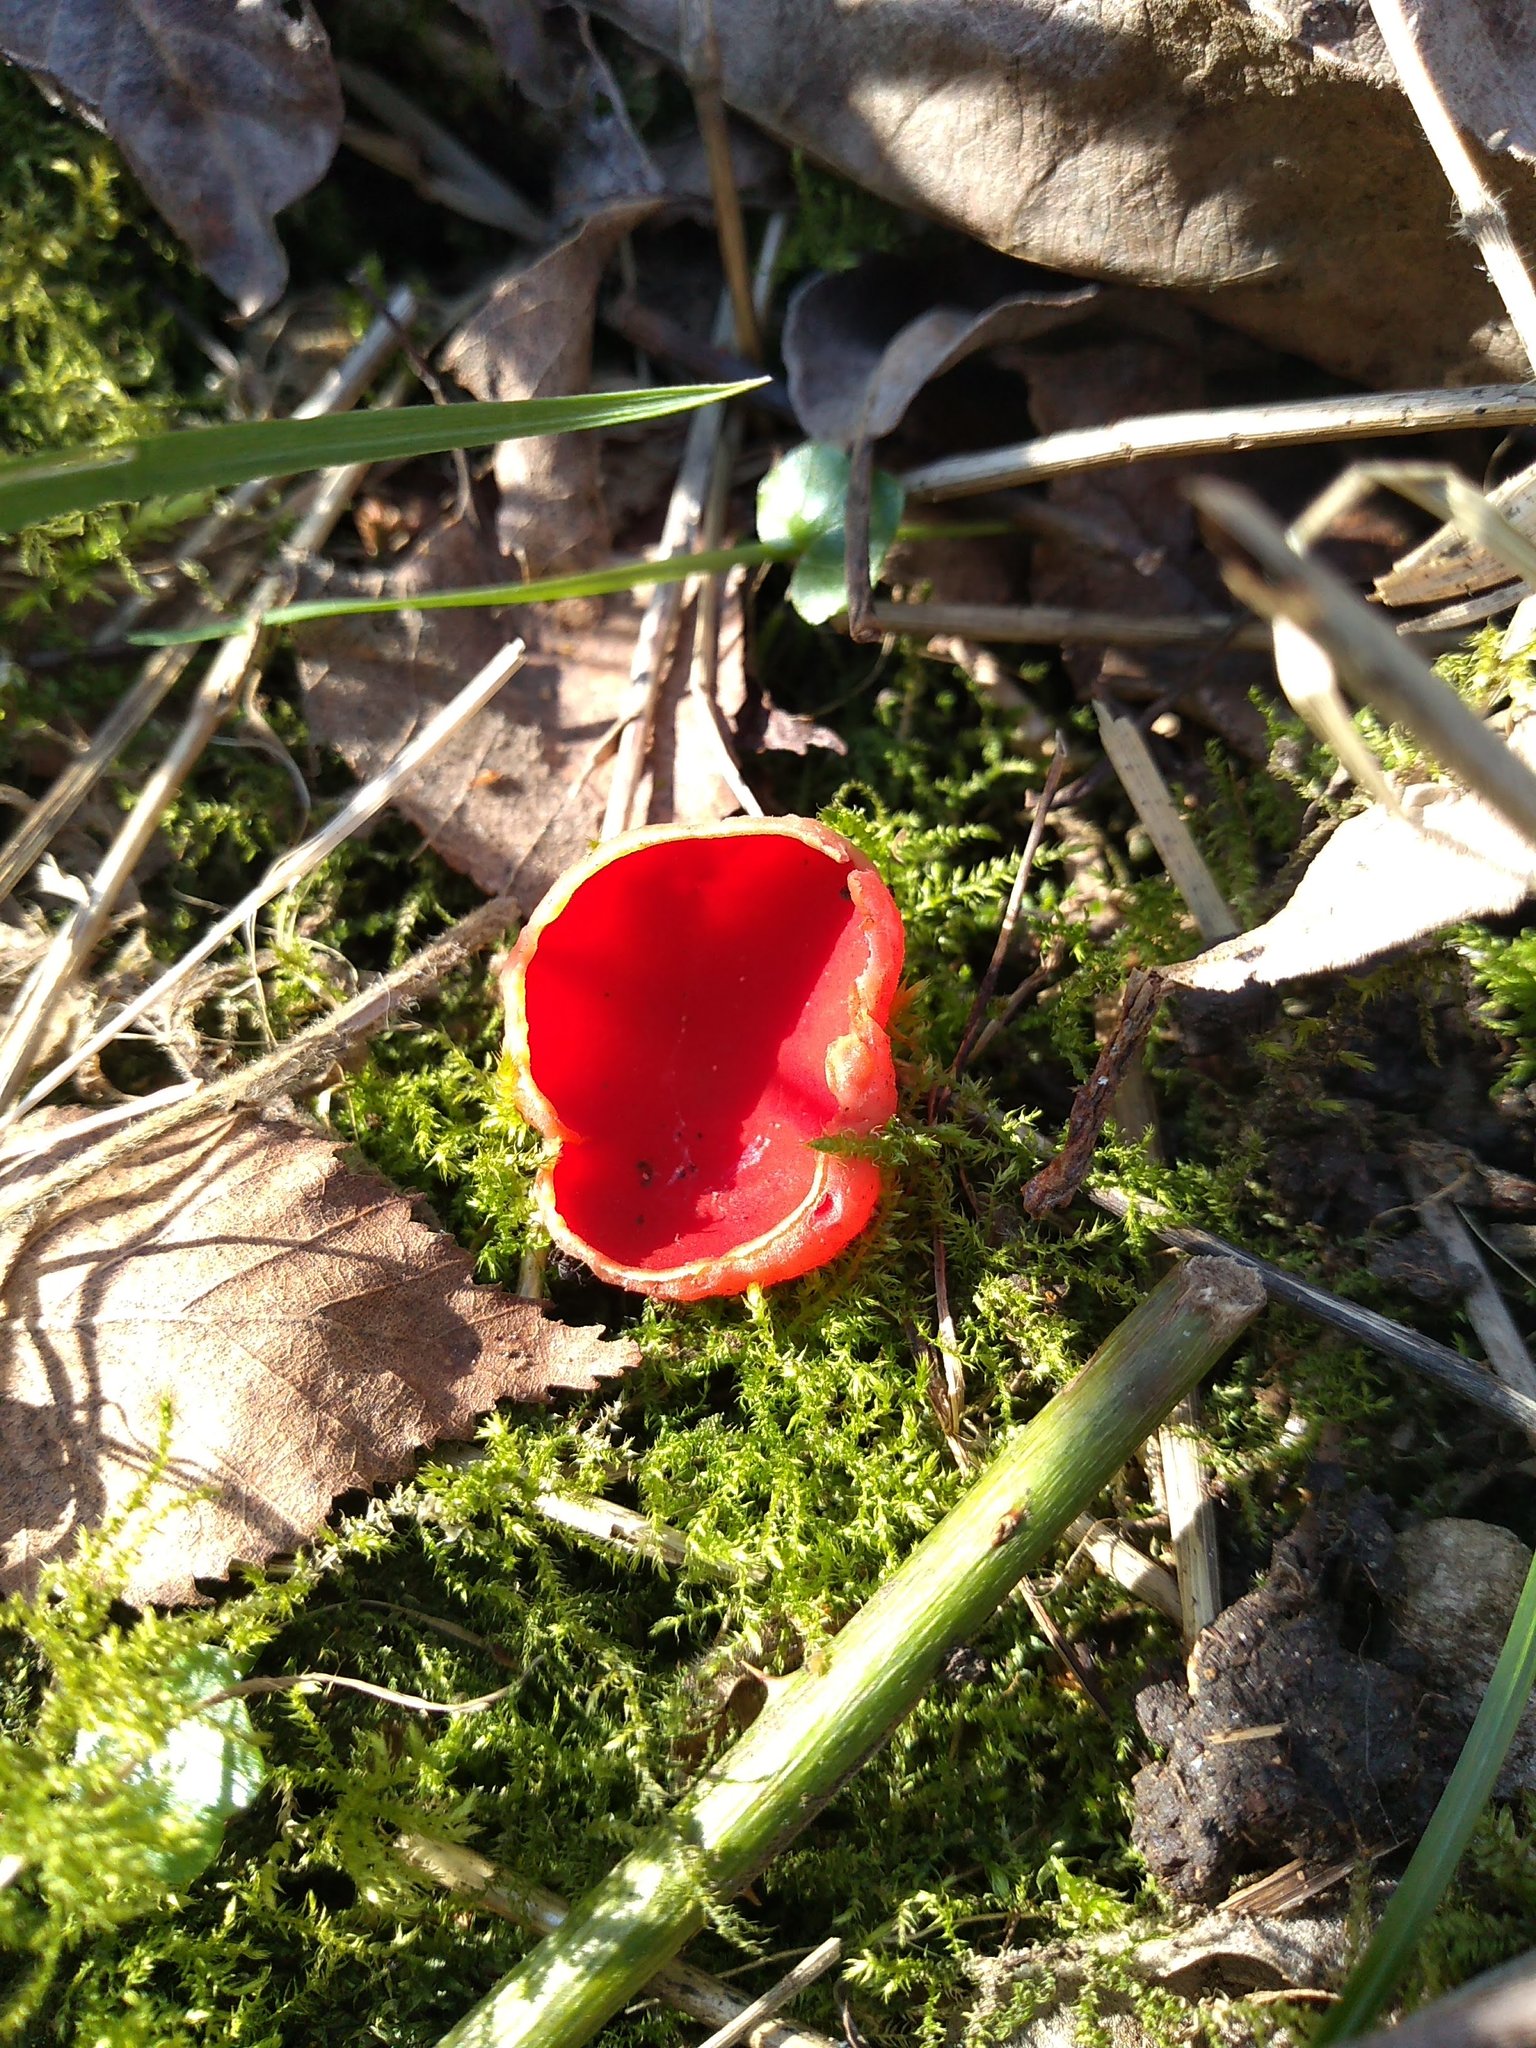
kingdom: Fungi
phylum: Ascomycota
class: Pezizomycetes
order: Pezizales
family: Sarcoscyphaceae
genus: Sarcoscypha
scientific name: Sarcoscypha
